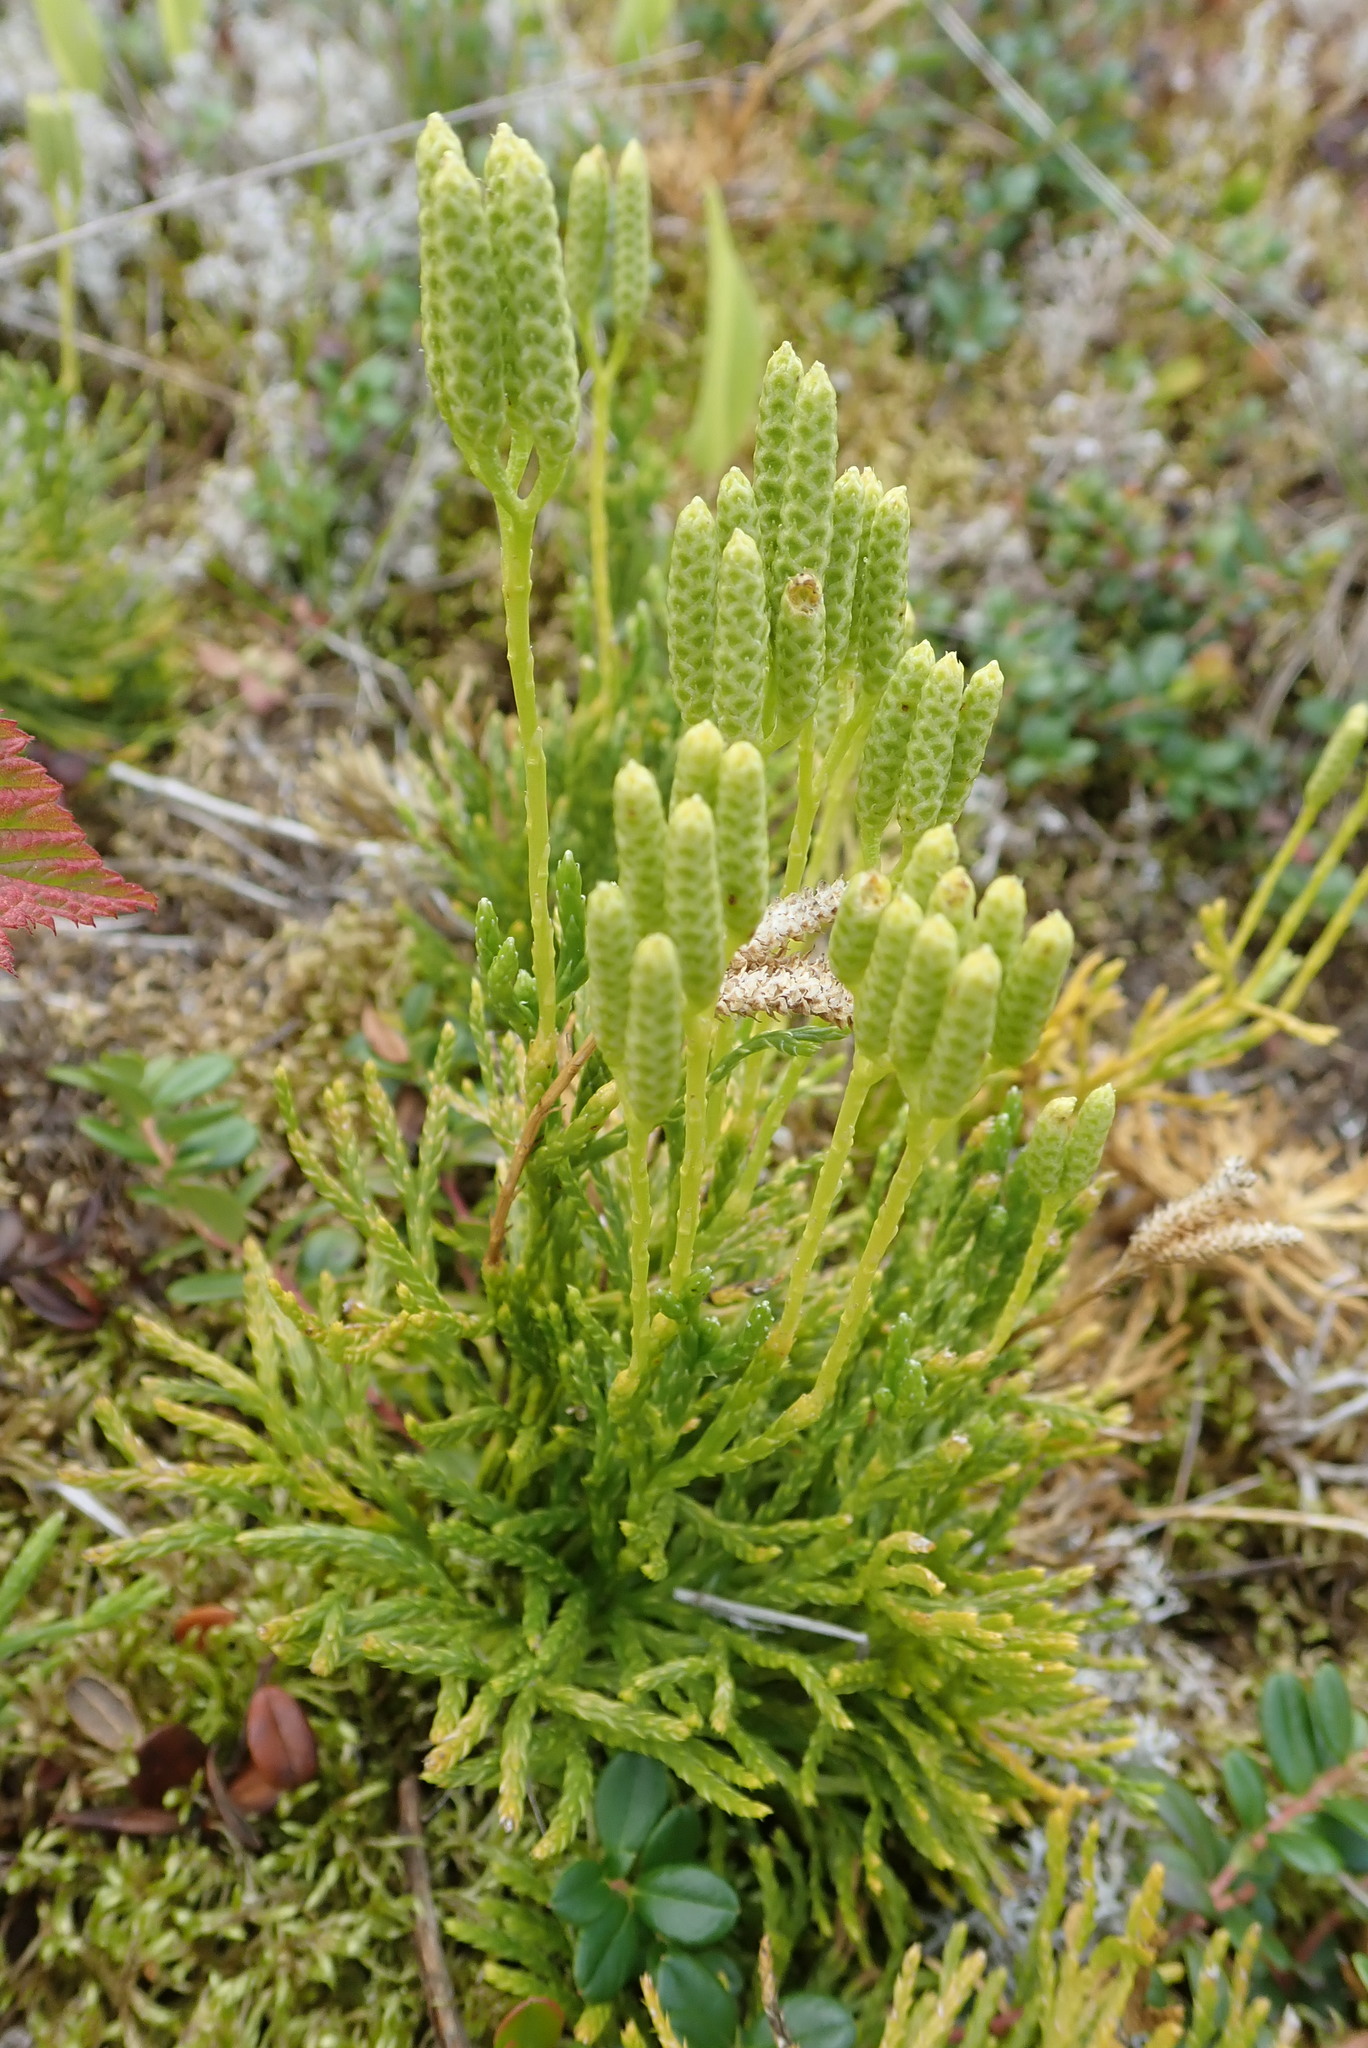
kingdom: Plantae
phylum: Tracheophyta
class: Lycopodiopsida
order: Lycopodiales
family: Lycopodiaceae
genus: Diphasiastrum
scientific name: Diphasiastrum complanatum
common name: Northern running-pine
